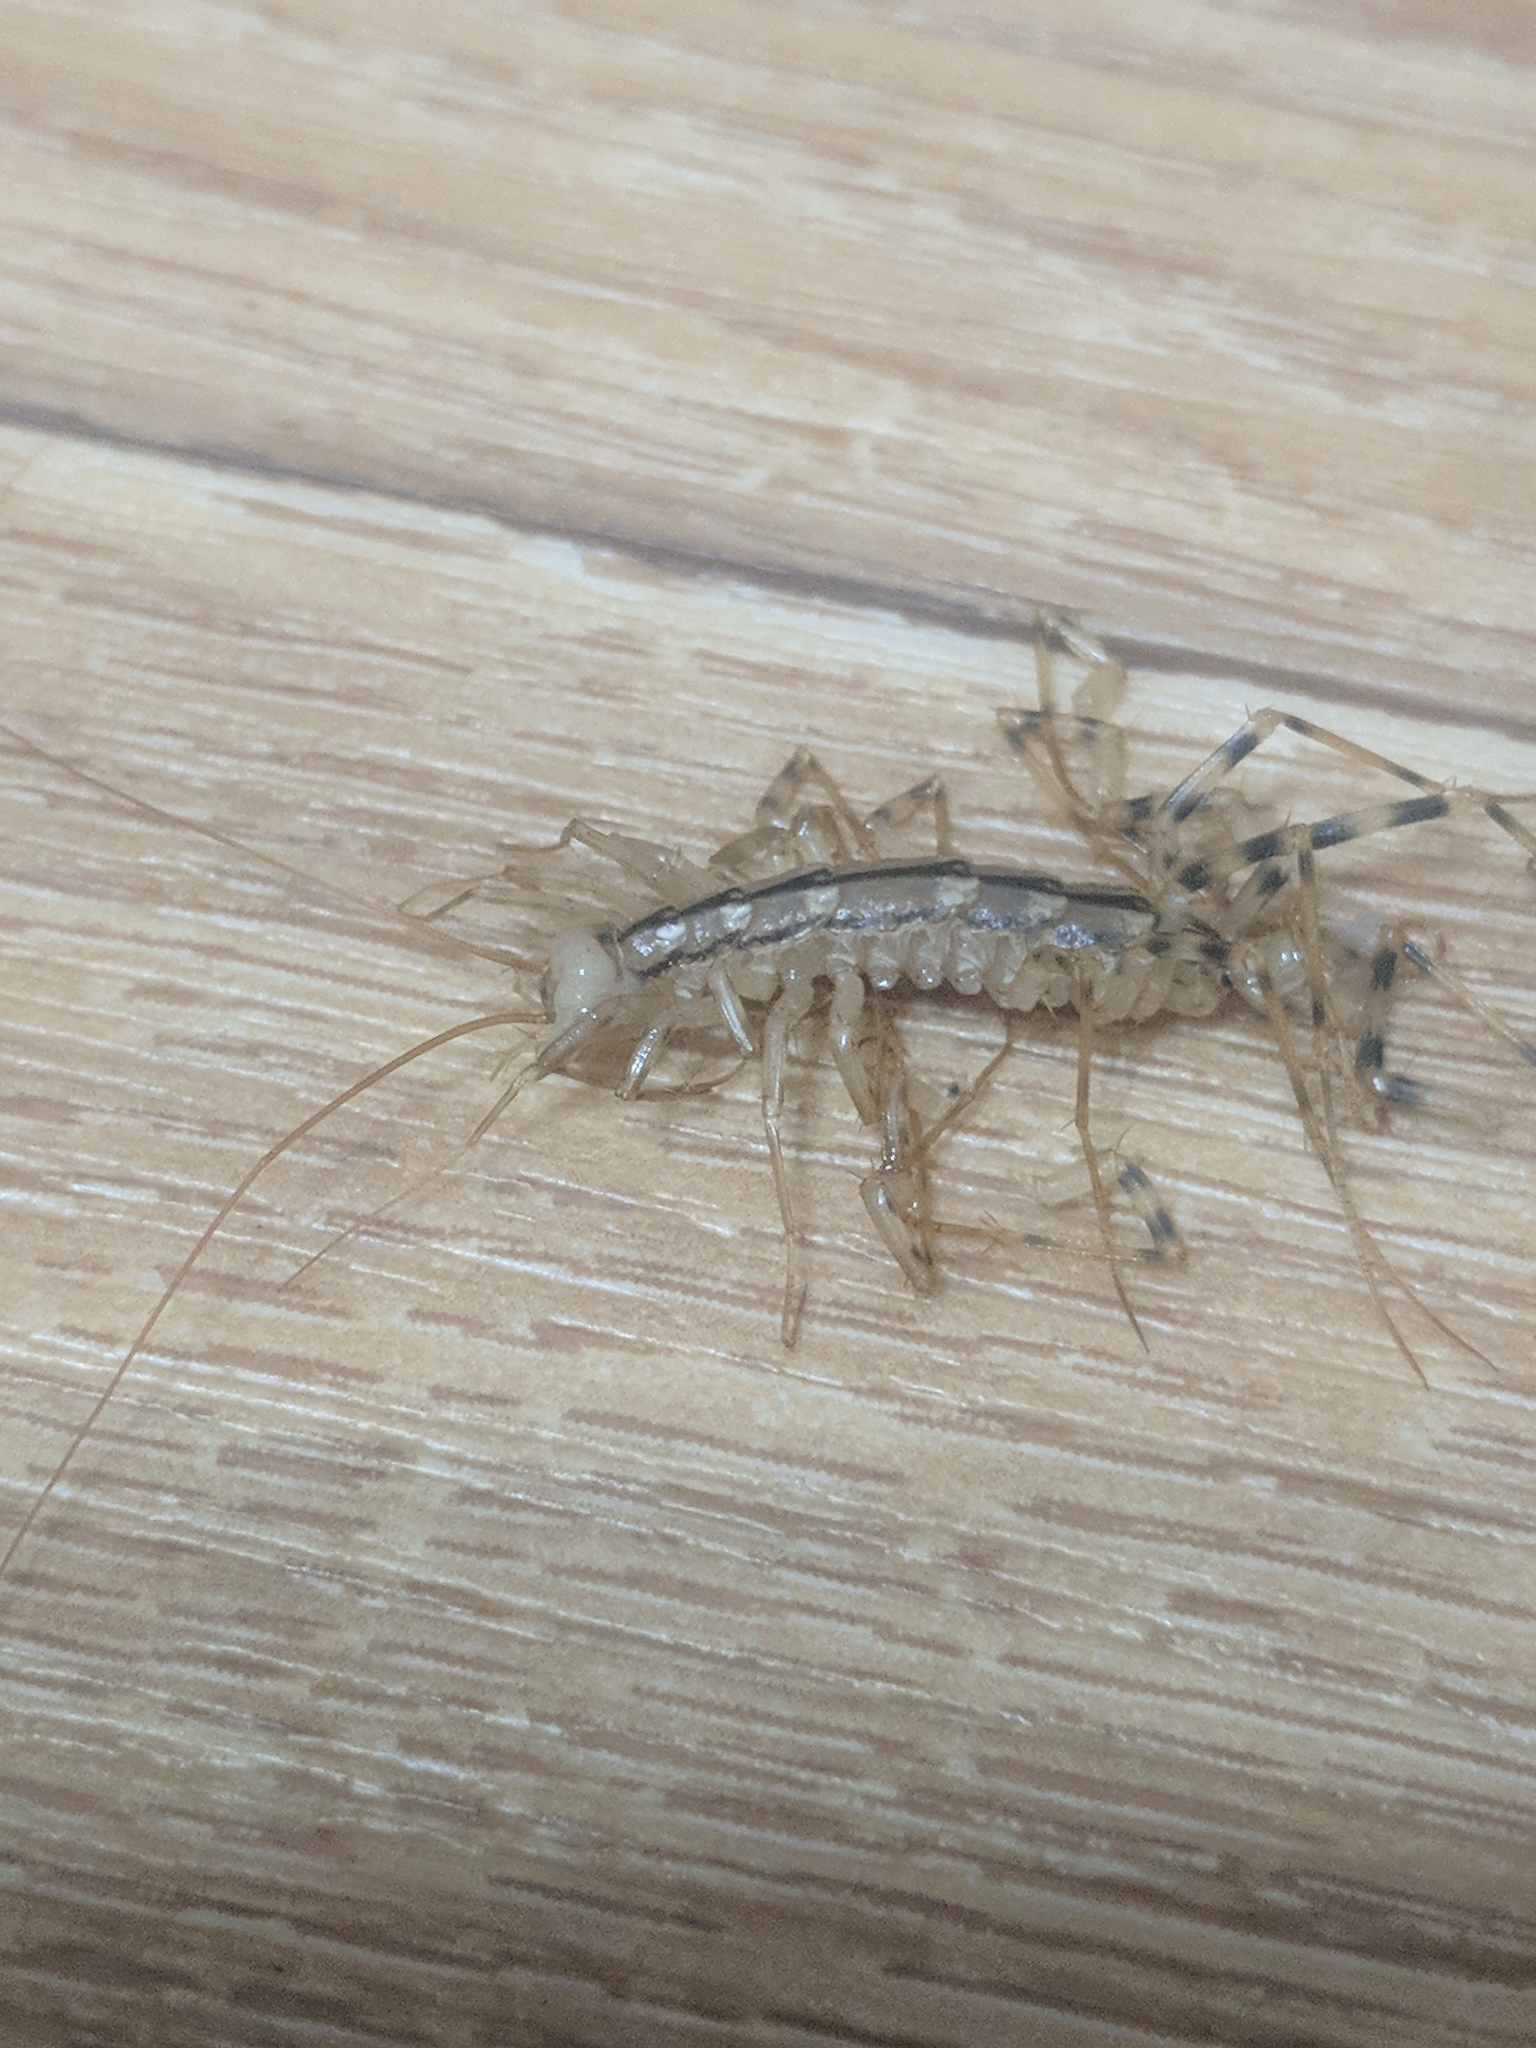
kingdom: Animalia
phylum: Arthropoda
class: Chilopoda
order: Scutigeromorpha
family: Scutigeridae
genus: Scutigera
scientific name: Scutigera coleoptrata
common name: House centipede
